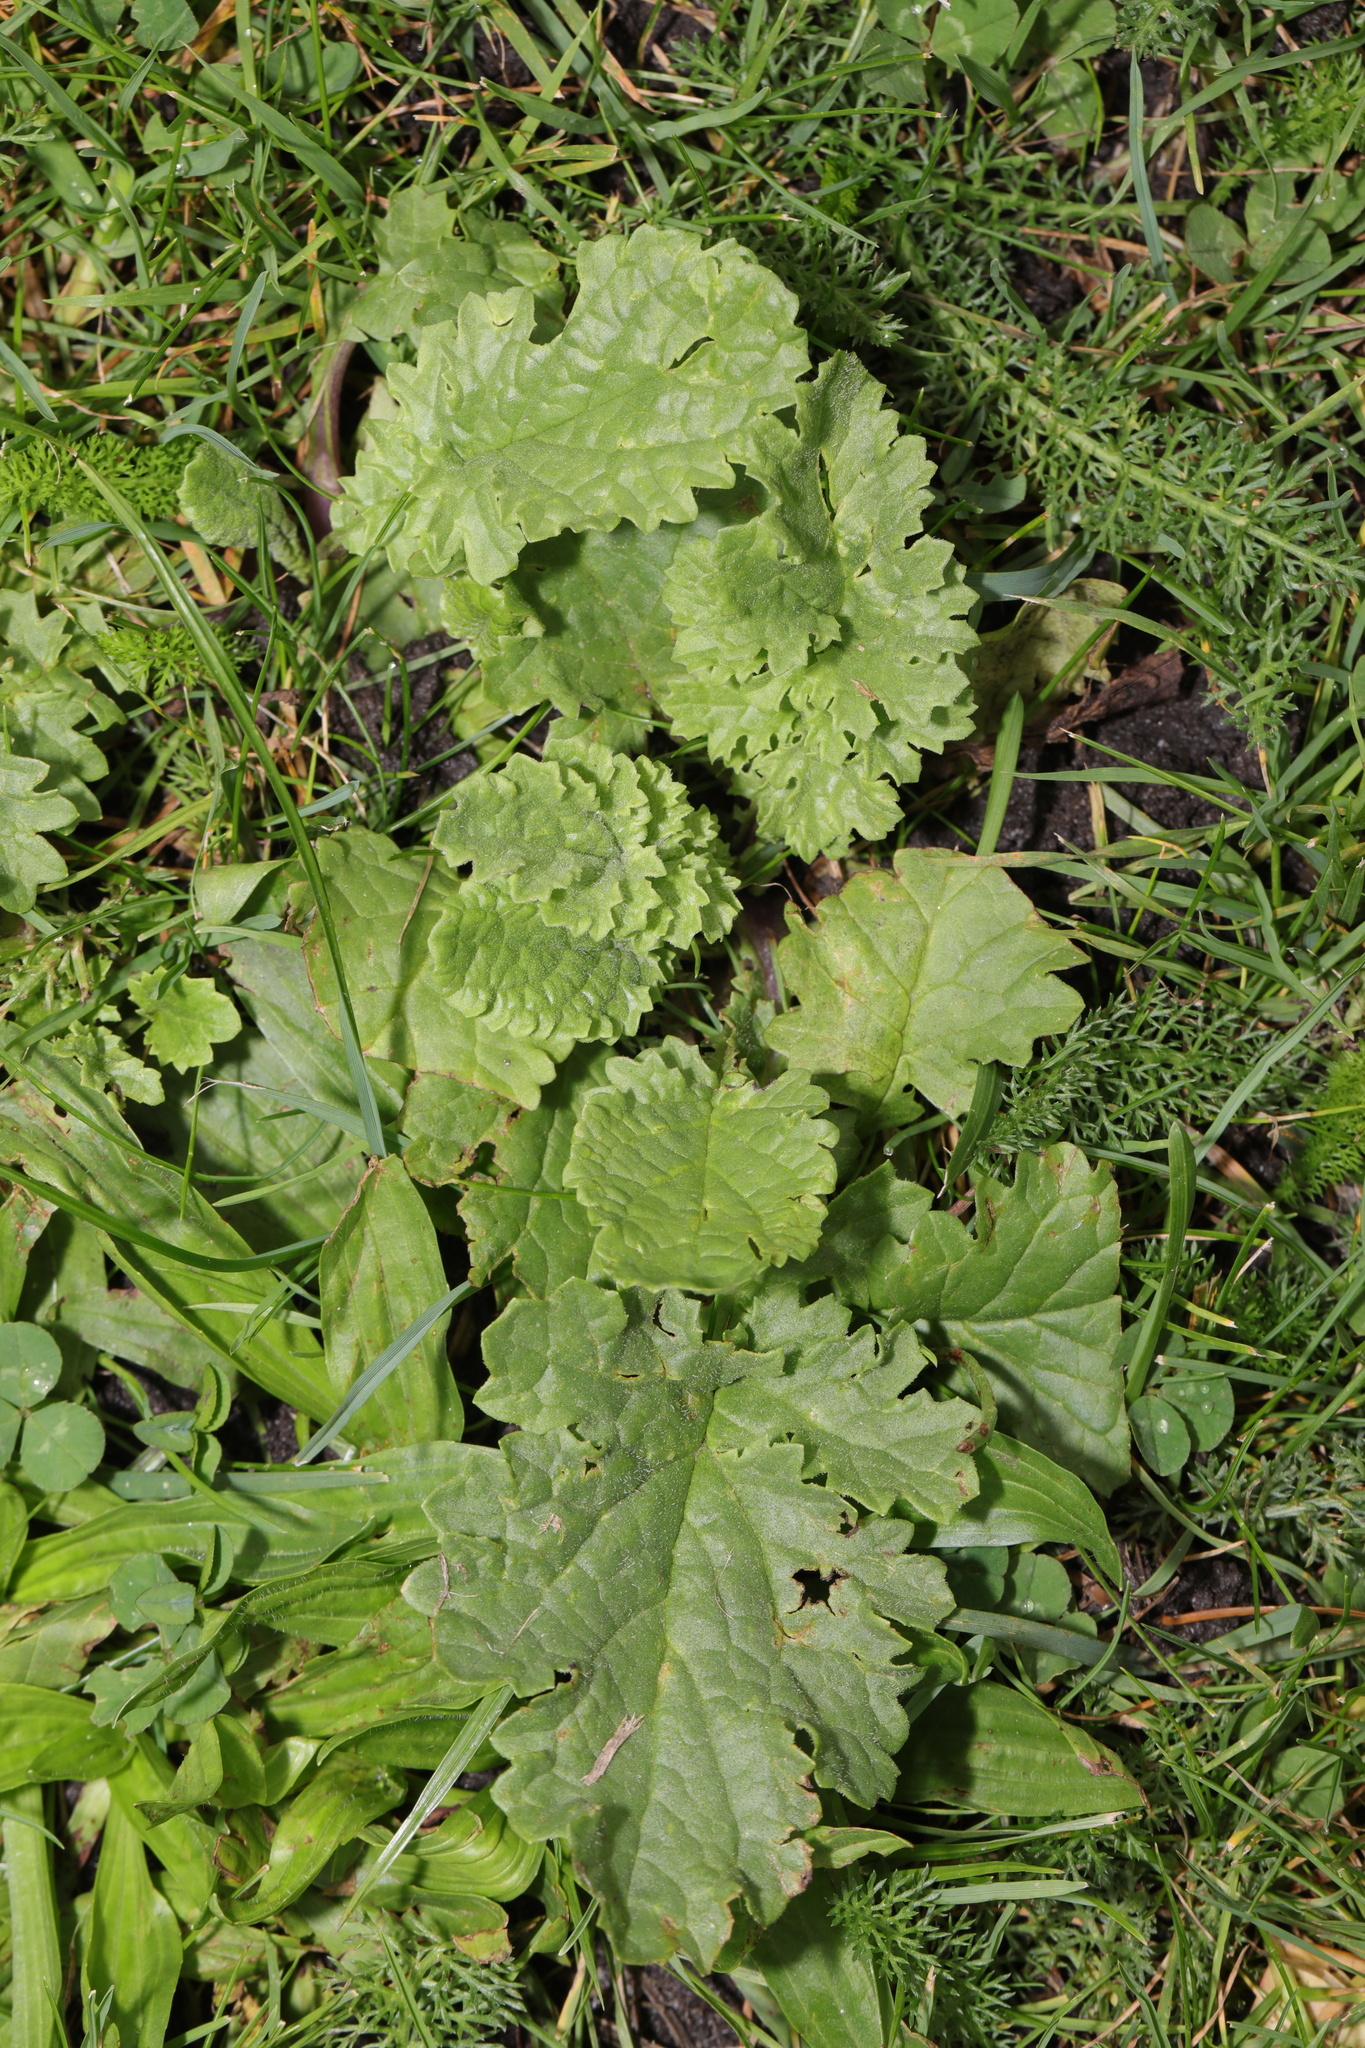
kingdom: Plantae
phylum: Tracheophyta
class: Magnoliopsida
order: Asterales
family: Asteraceae
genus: Jacobaea
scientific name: Jacobaea vulgaris
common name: Stinking willie
